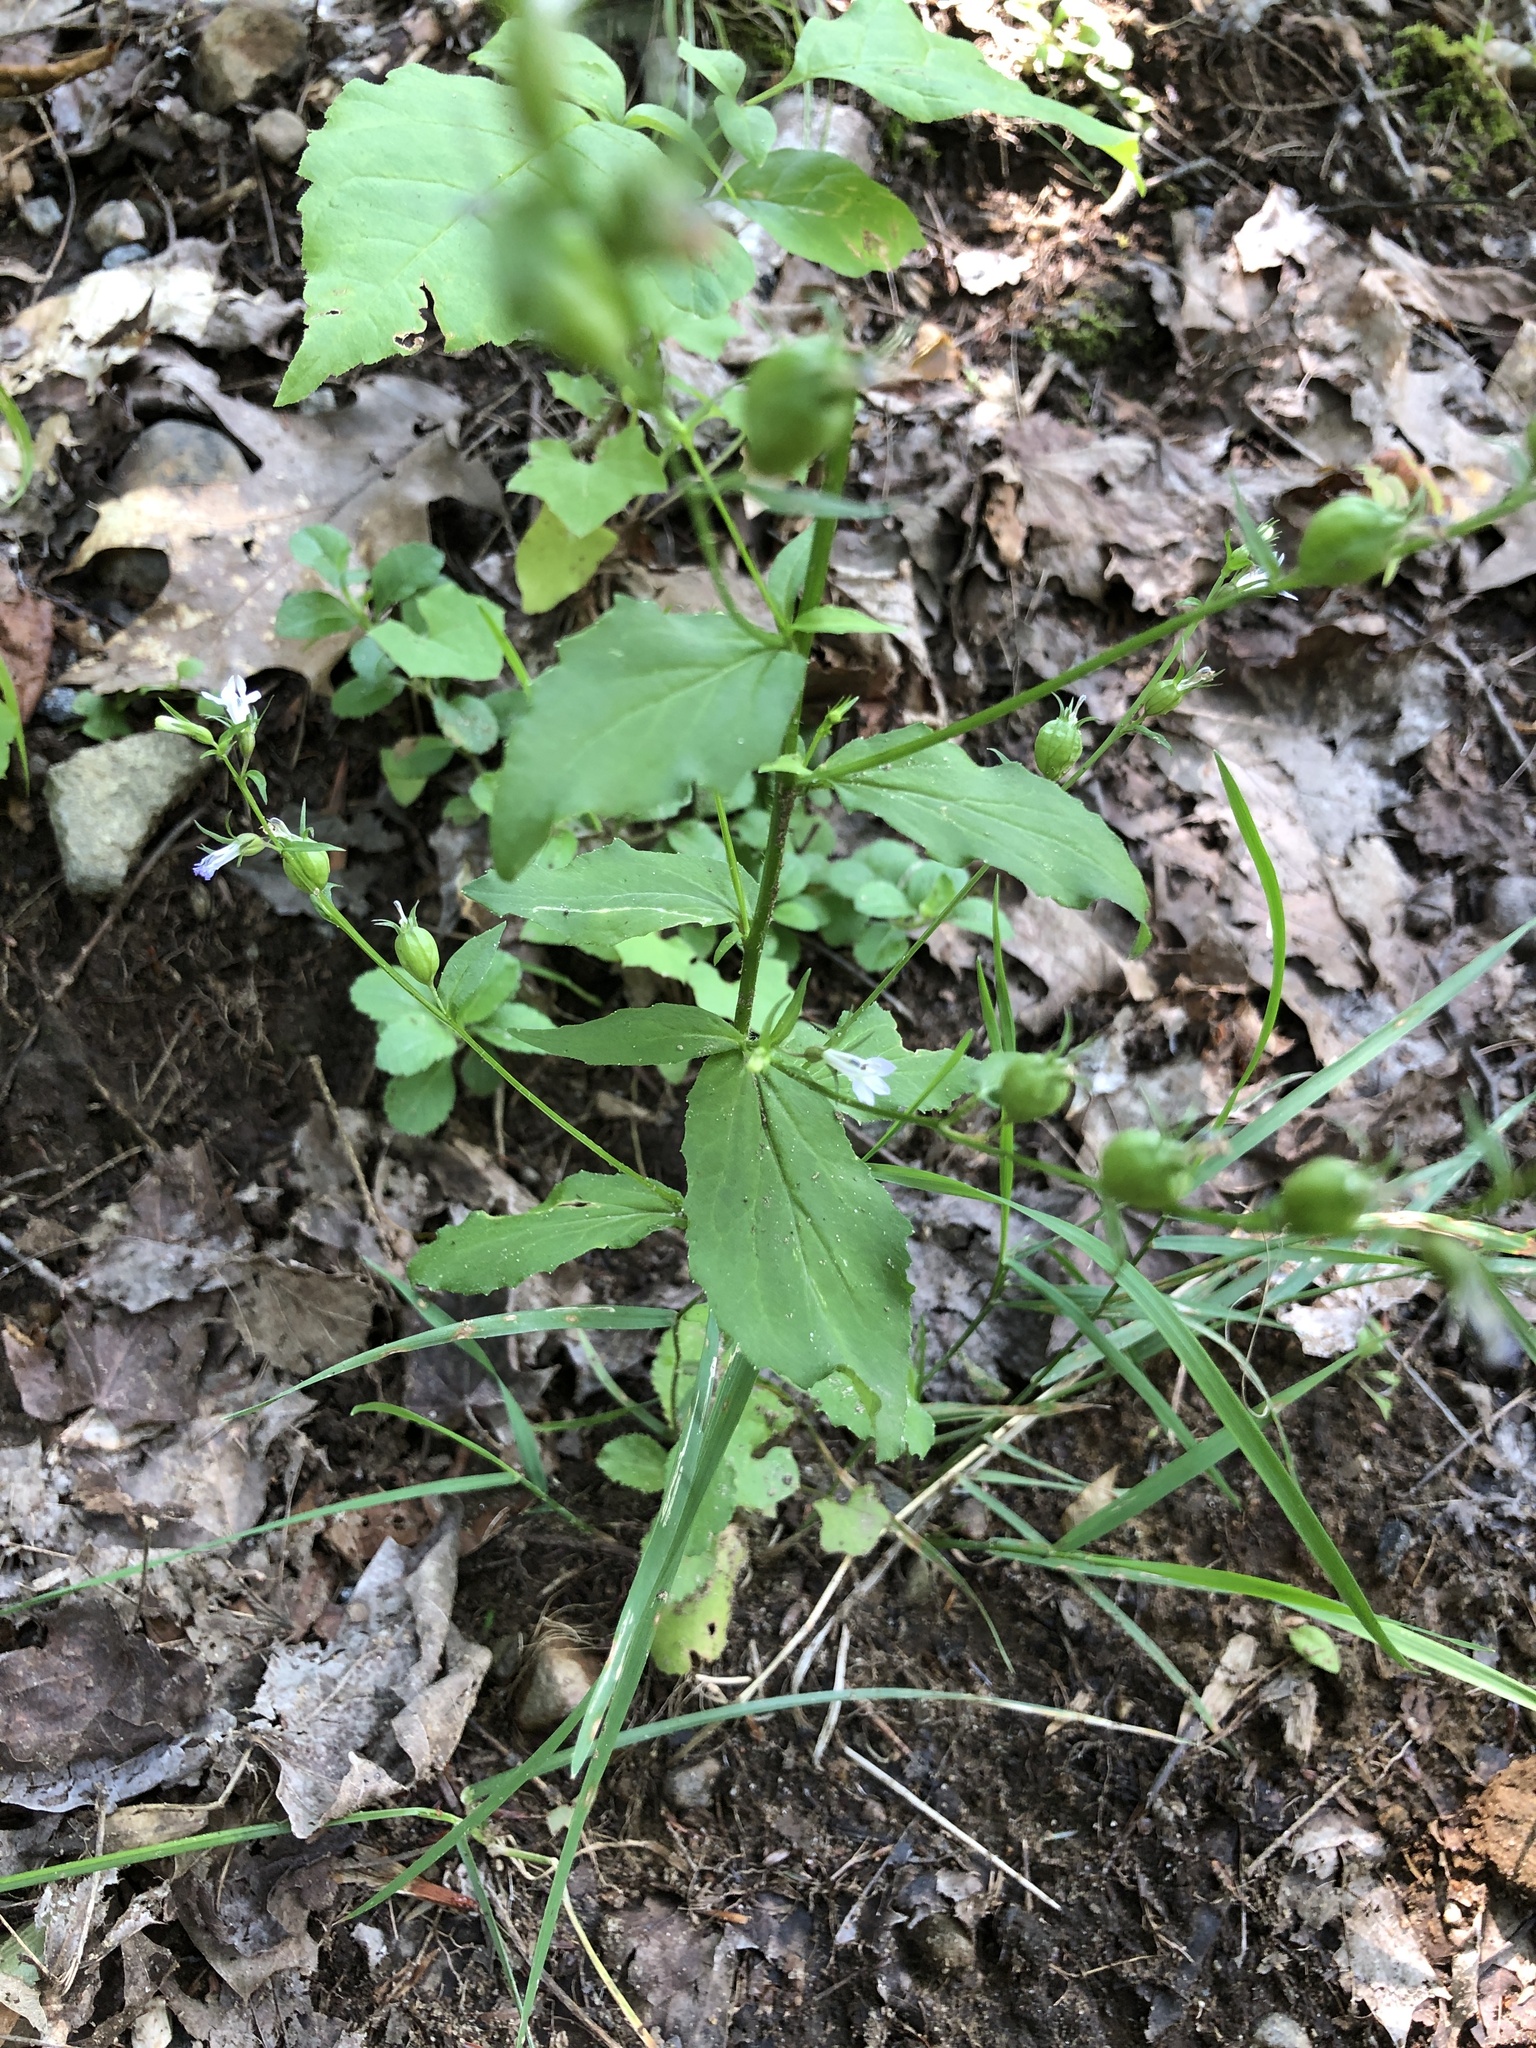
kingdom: Plantae
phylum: Tracheophyta
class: Magnoliopsida
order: Asterales
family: Campanulaceae
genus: Lobelia
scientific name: Lobelia inflata
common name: Indian tobacco
